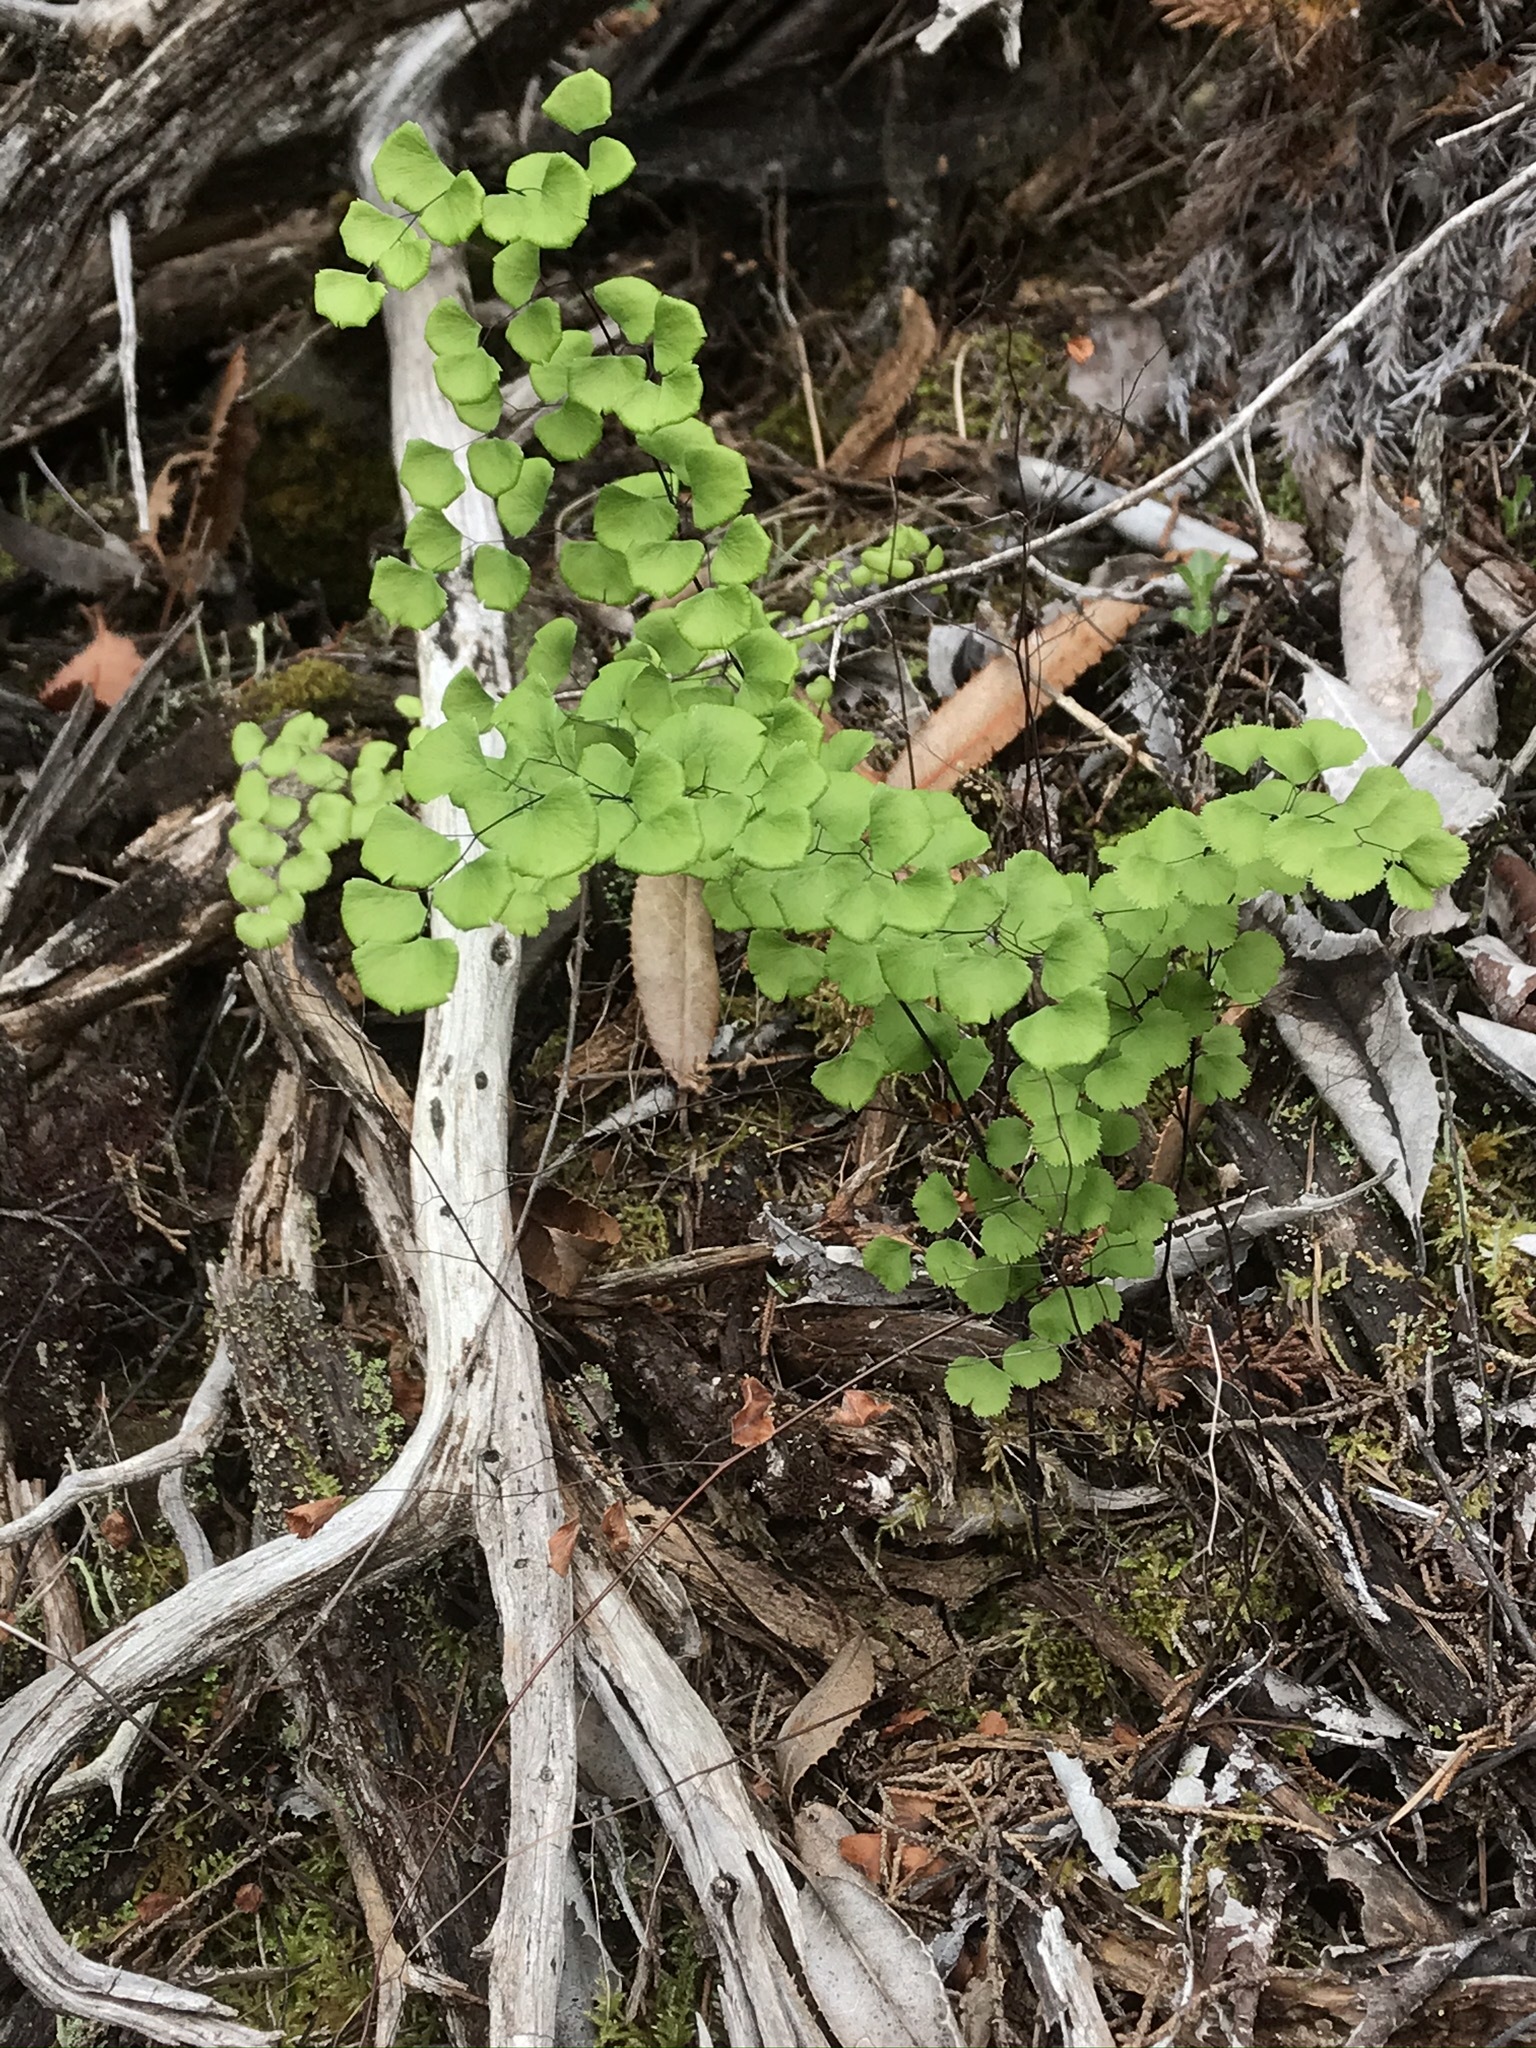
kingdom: Plantae
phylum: Tracheophyta
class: Polypodiopsida
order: Polypodiales
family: Pteridaceae
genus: Adiantum
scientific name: Adiantum jordanii
